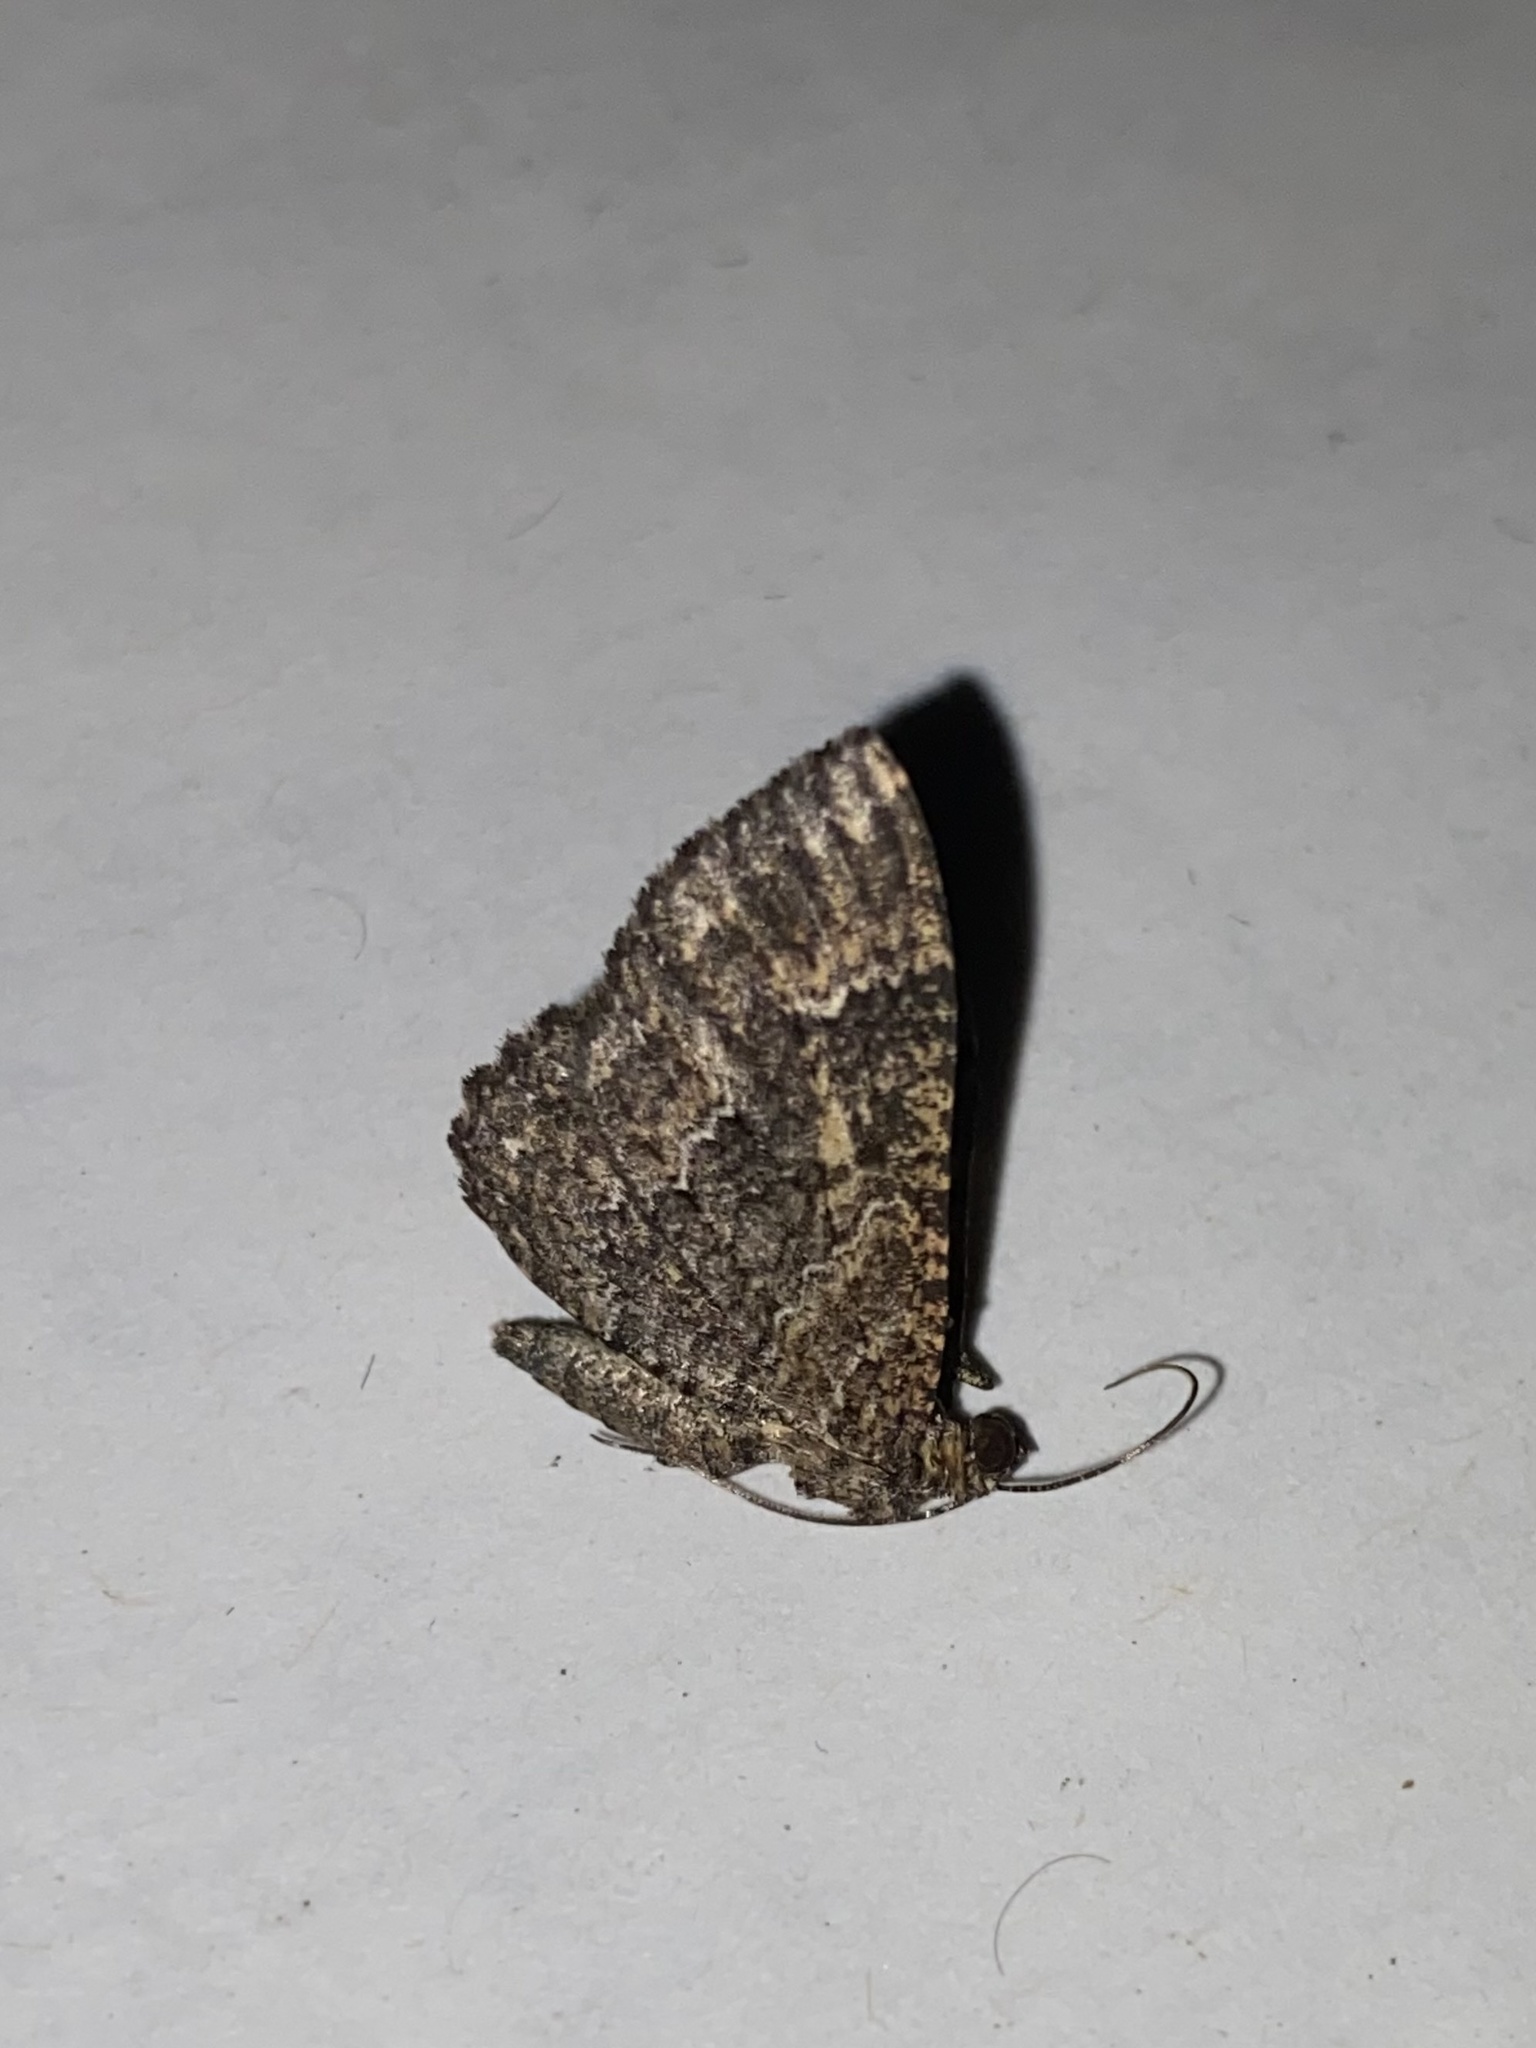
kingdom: Animalia
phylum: Arthropoda
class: Insecta
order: Lepidoptera
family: Geometridae
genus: Disclisioprocta
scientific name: Disclisioprocta stellata
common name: Somber carpet
